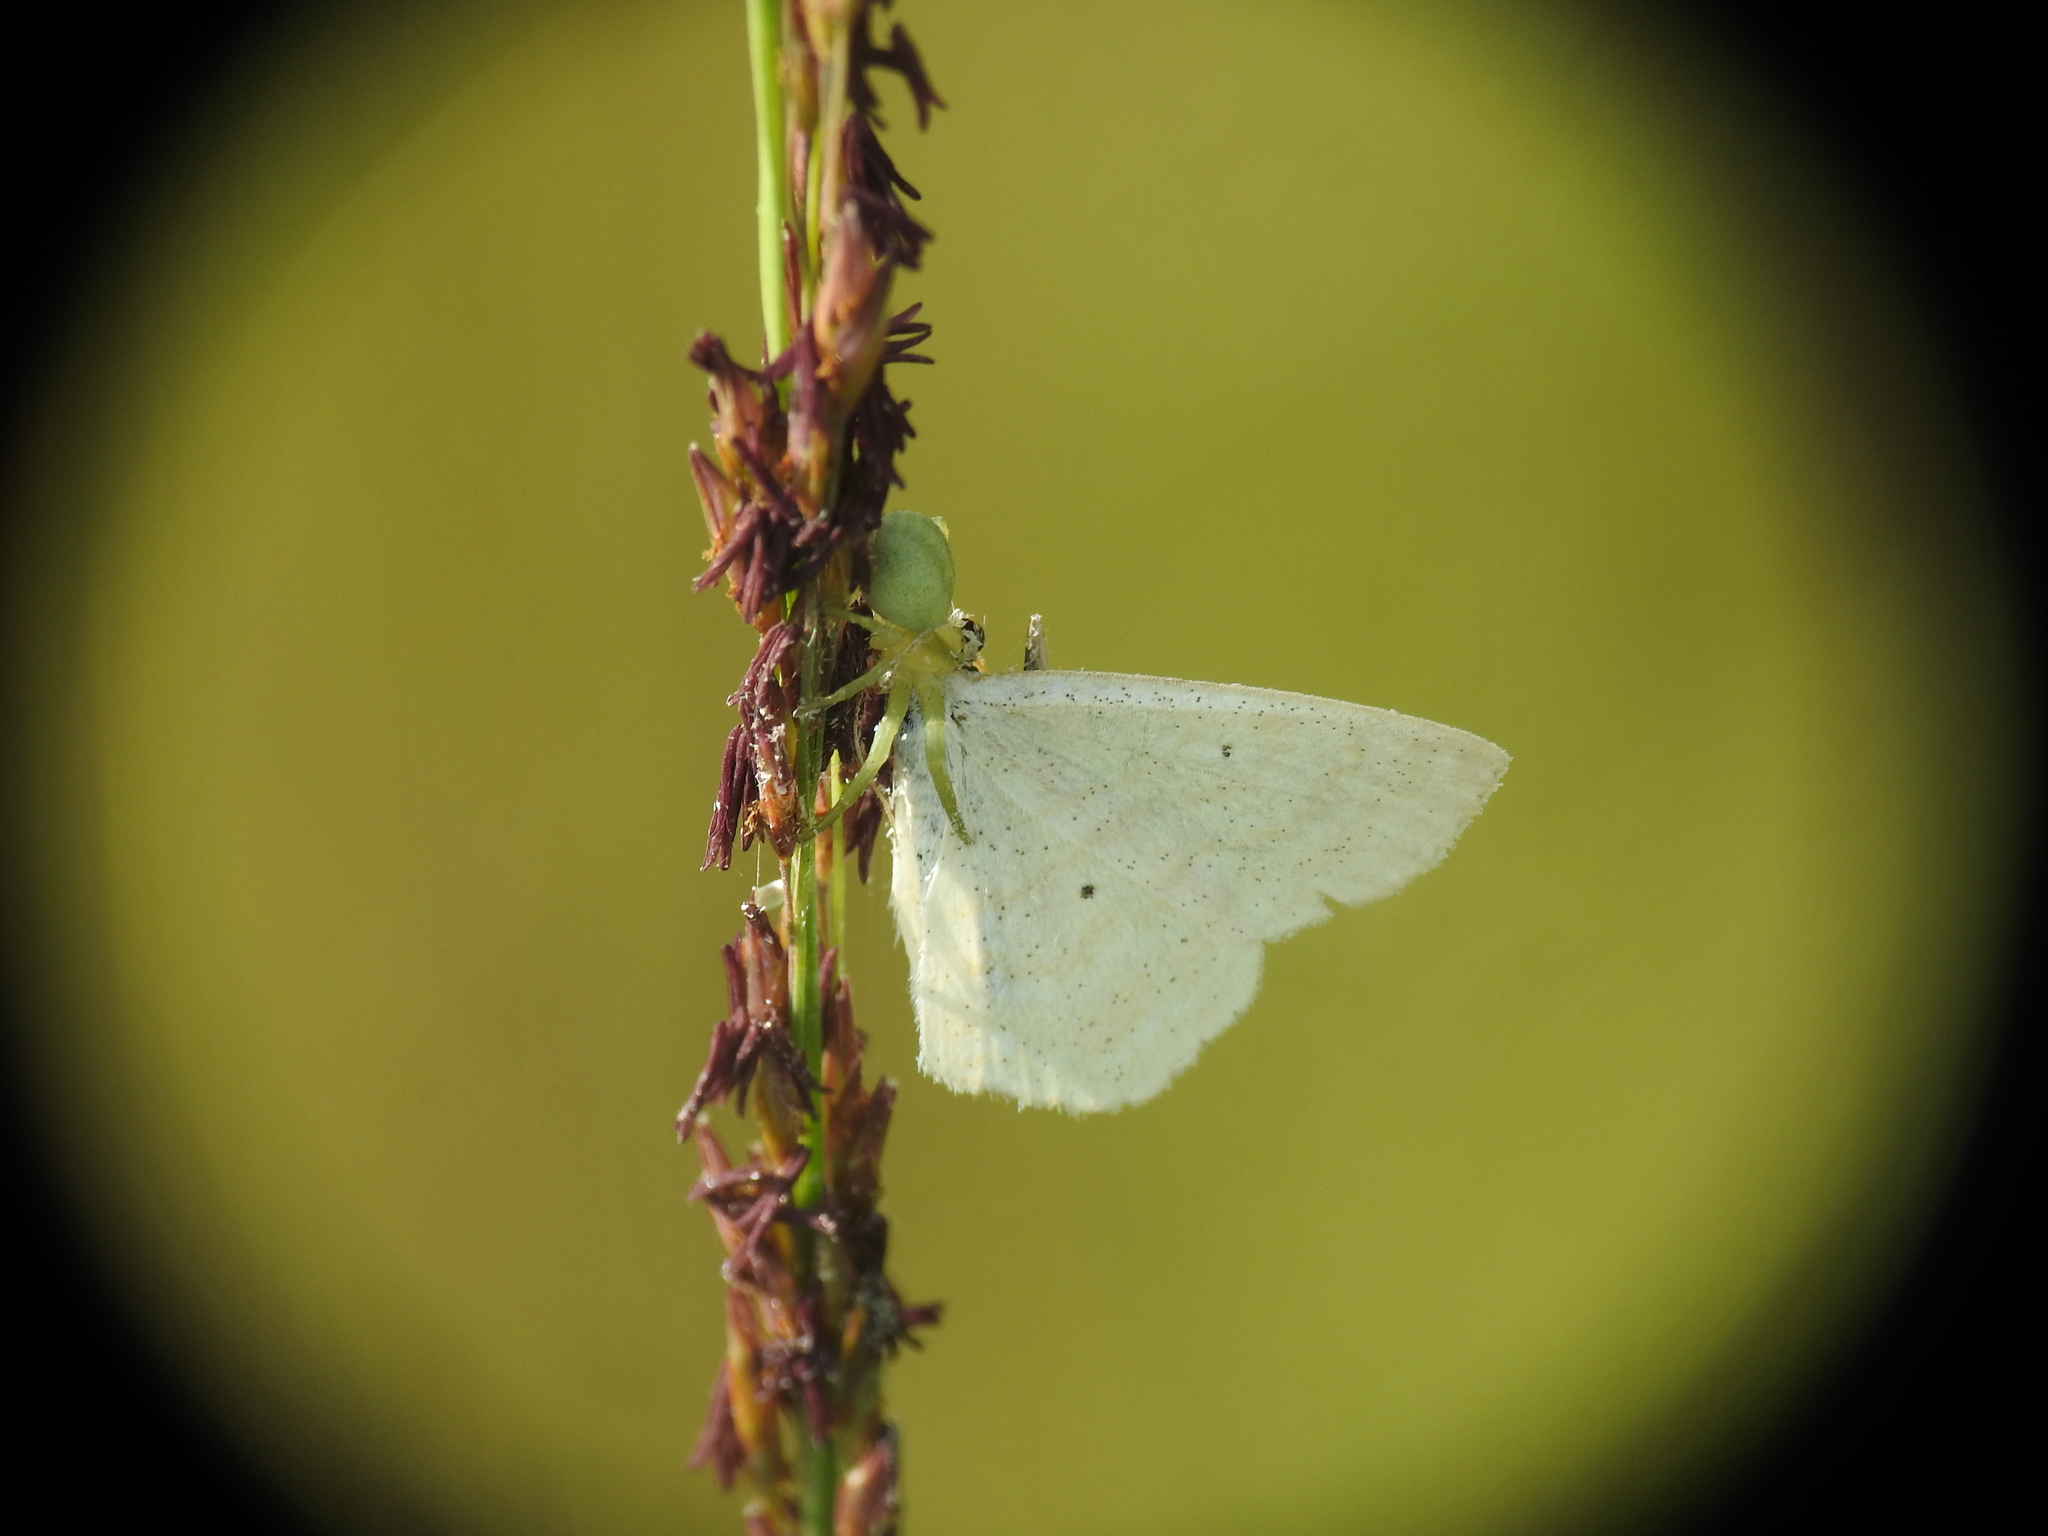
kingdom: Animalia
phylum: Arthropoda
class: Insecta
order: Lepidoptera
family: Geometridae
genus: Scopula
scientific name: Scopula immutata
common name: Lesser cream wave
